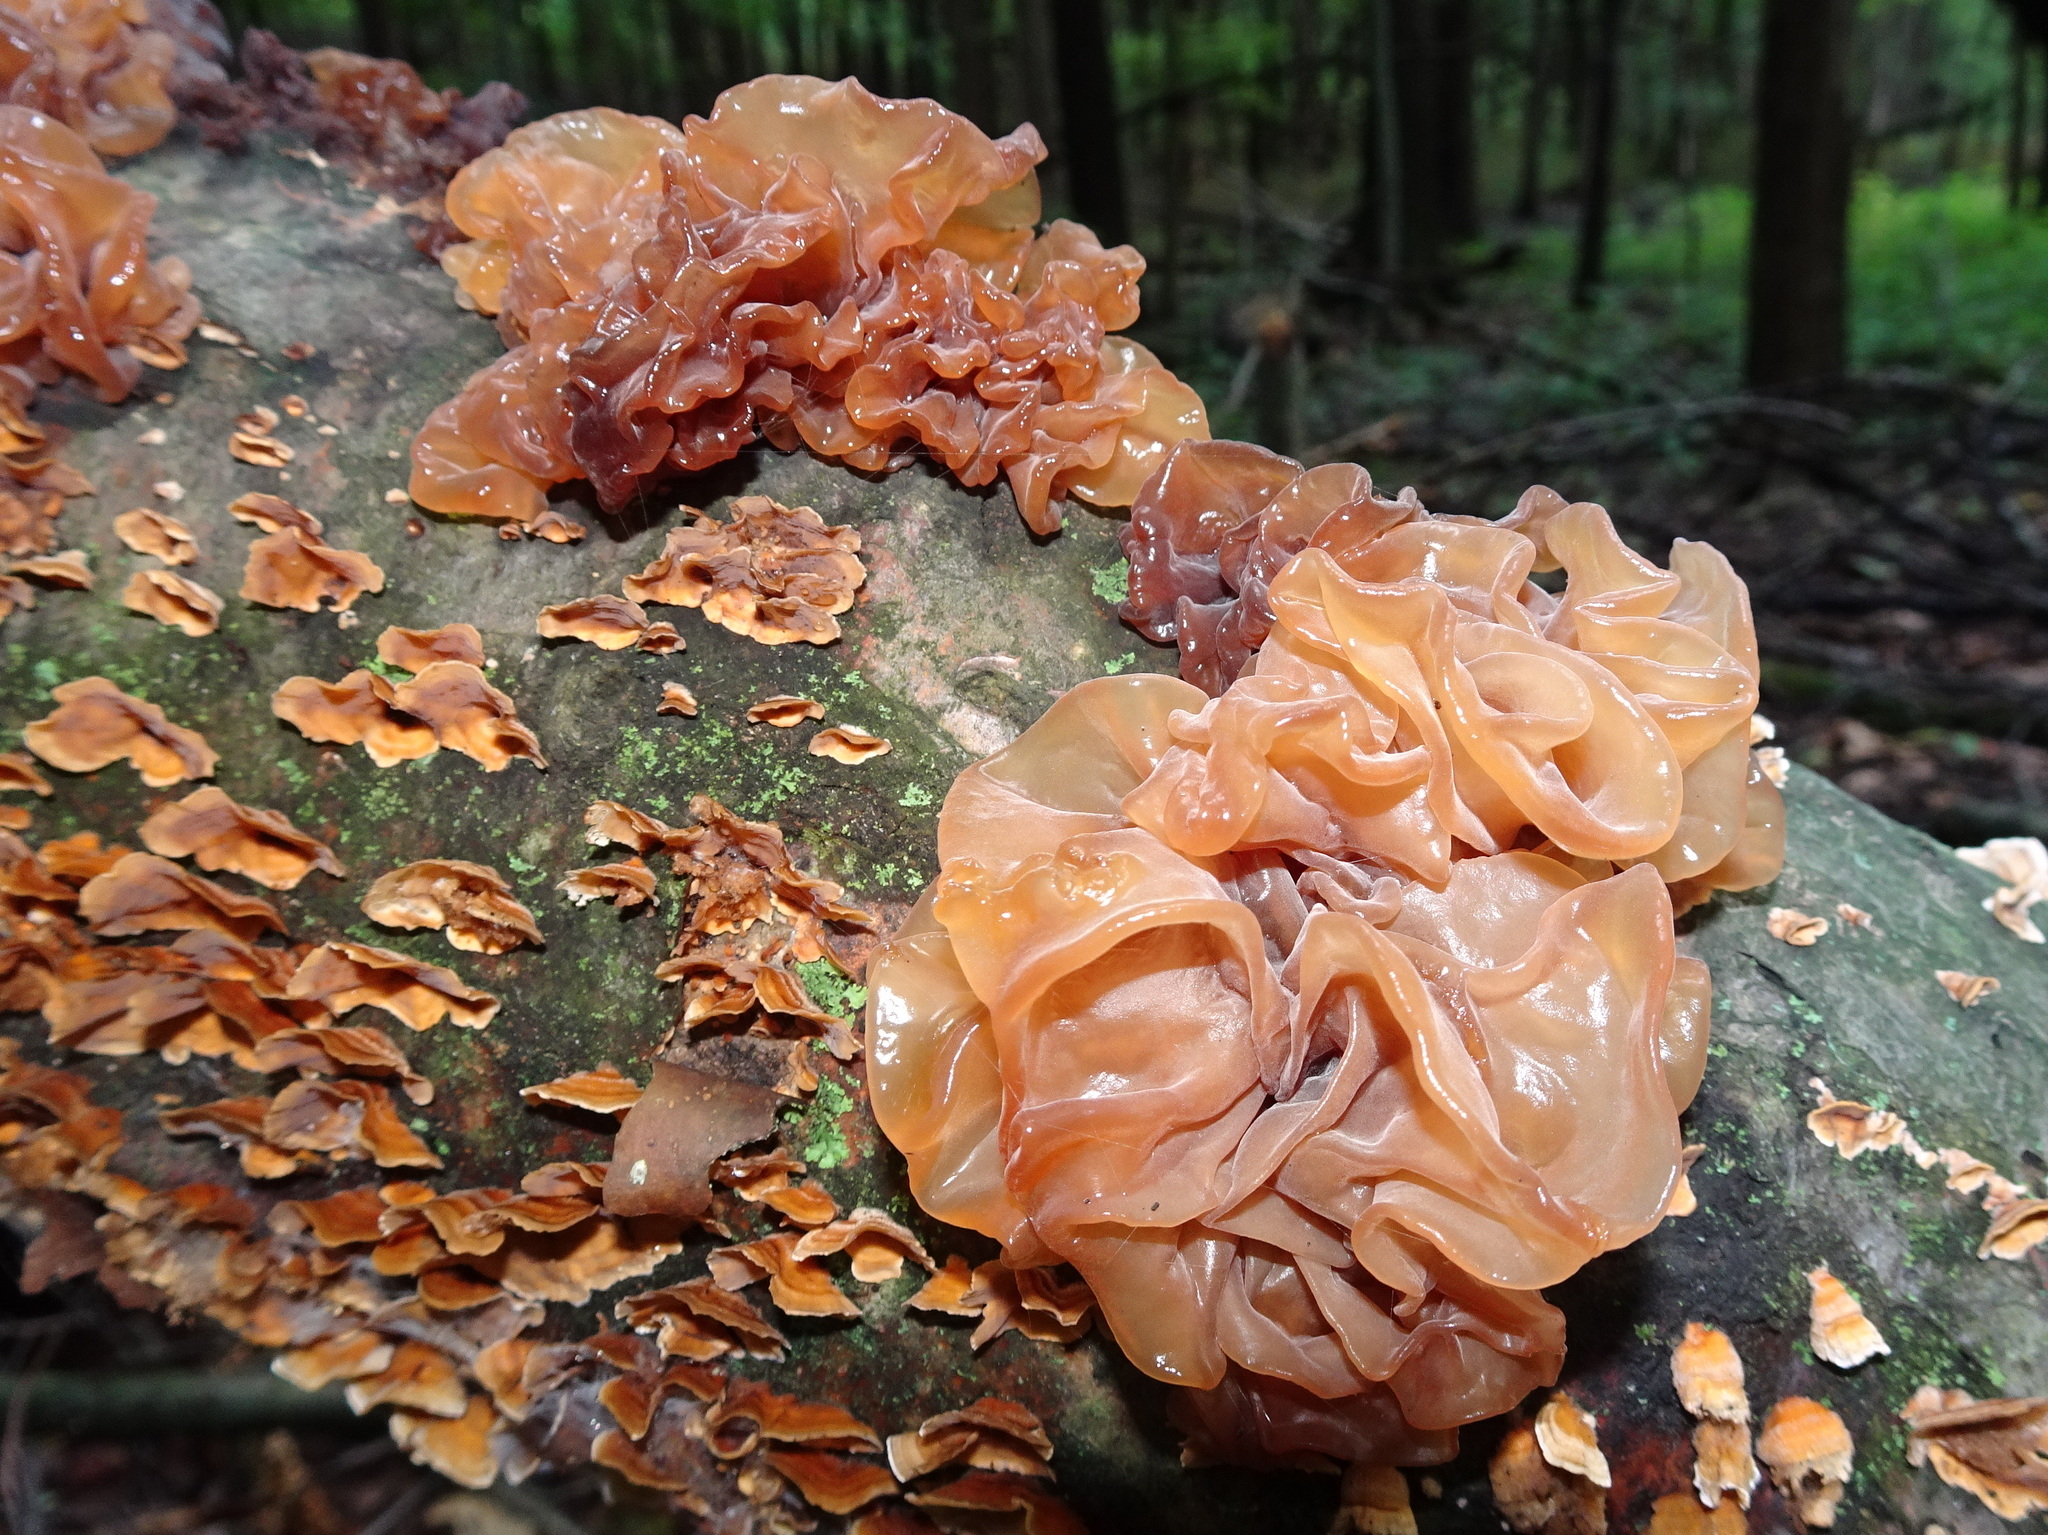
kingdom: Fungi
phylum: Basidiomycota
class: Tremellomycetes
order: Tremellales
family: Tremellaceae
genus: Phaeotremella
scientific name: Phaeotremella frondosa
